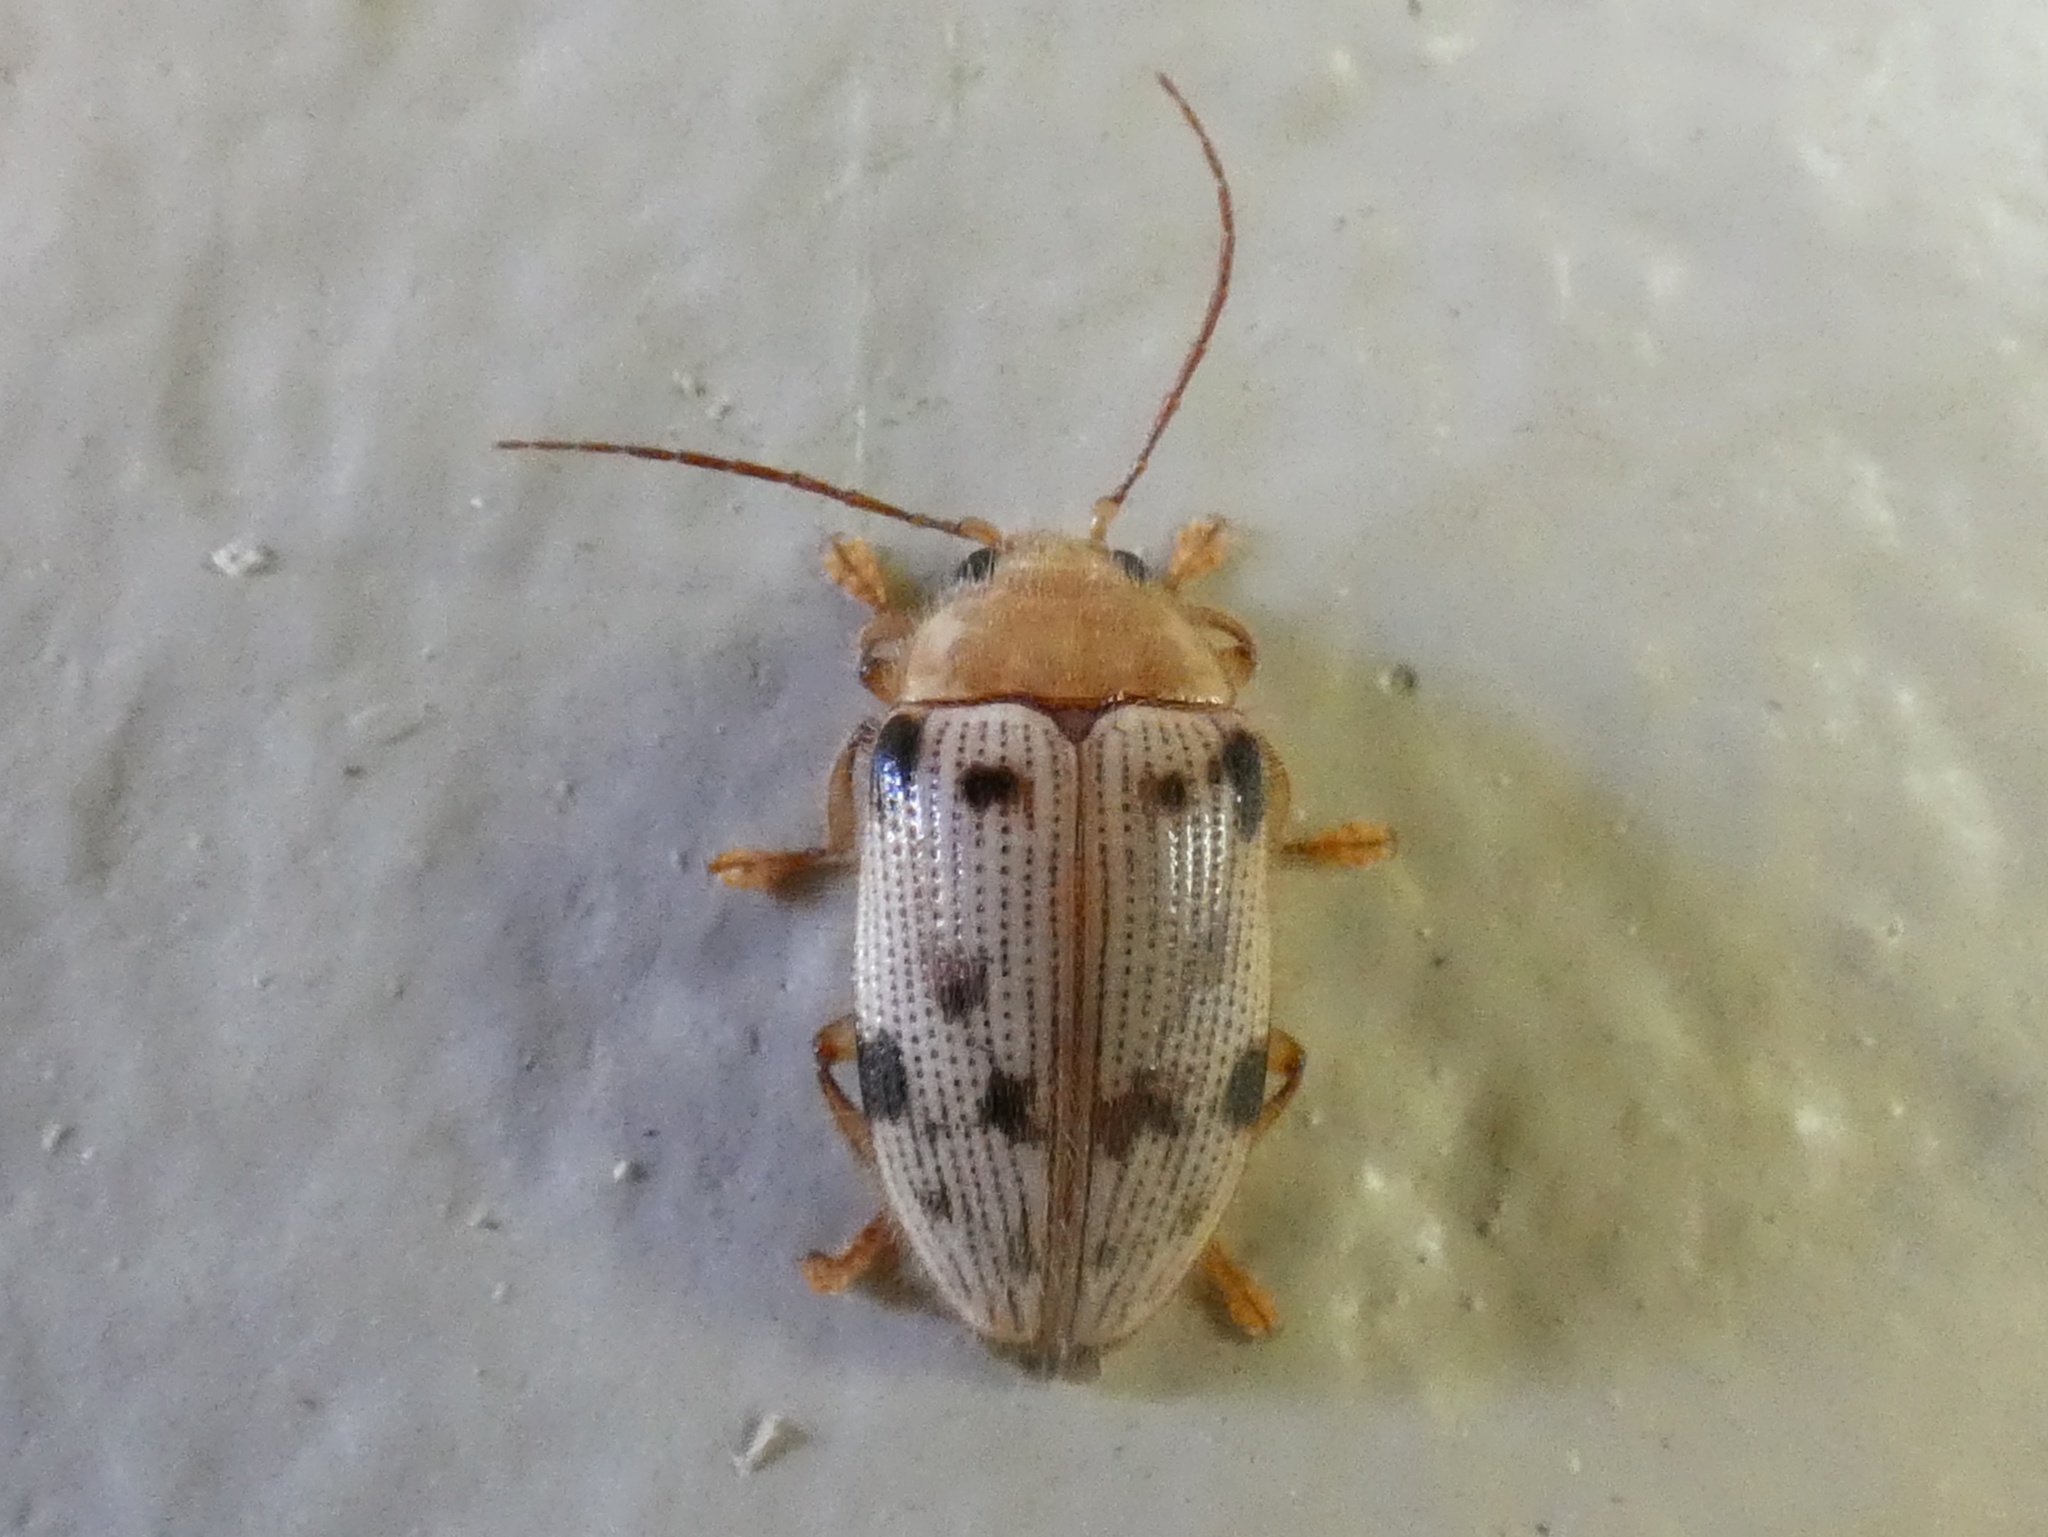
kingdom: Animalia
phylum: Arthropoda
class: Insecta
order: Coleoptera
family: Artematopodidae
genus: Artematopus
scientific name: Artematopus
